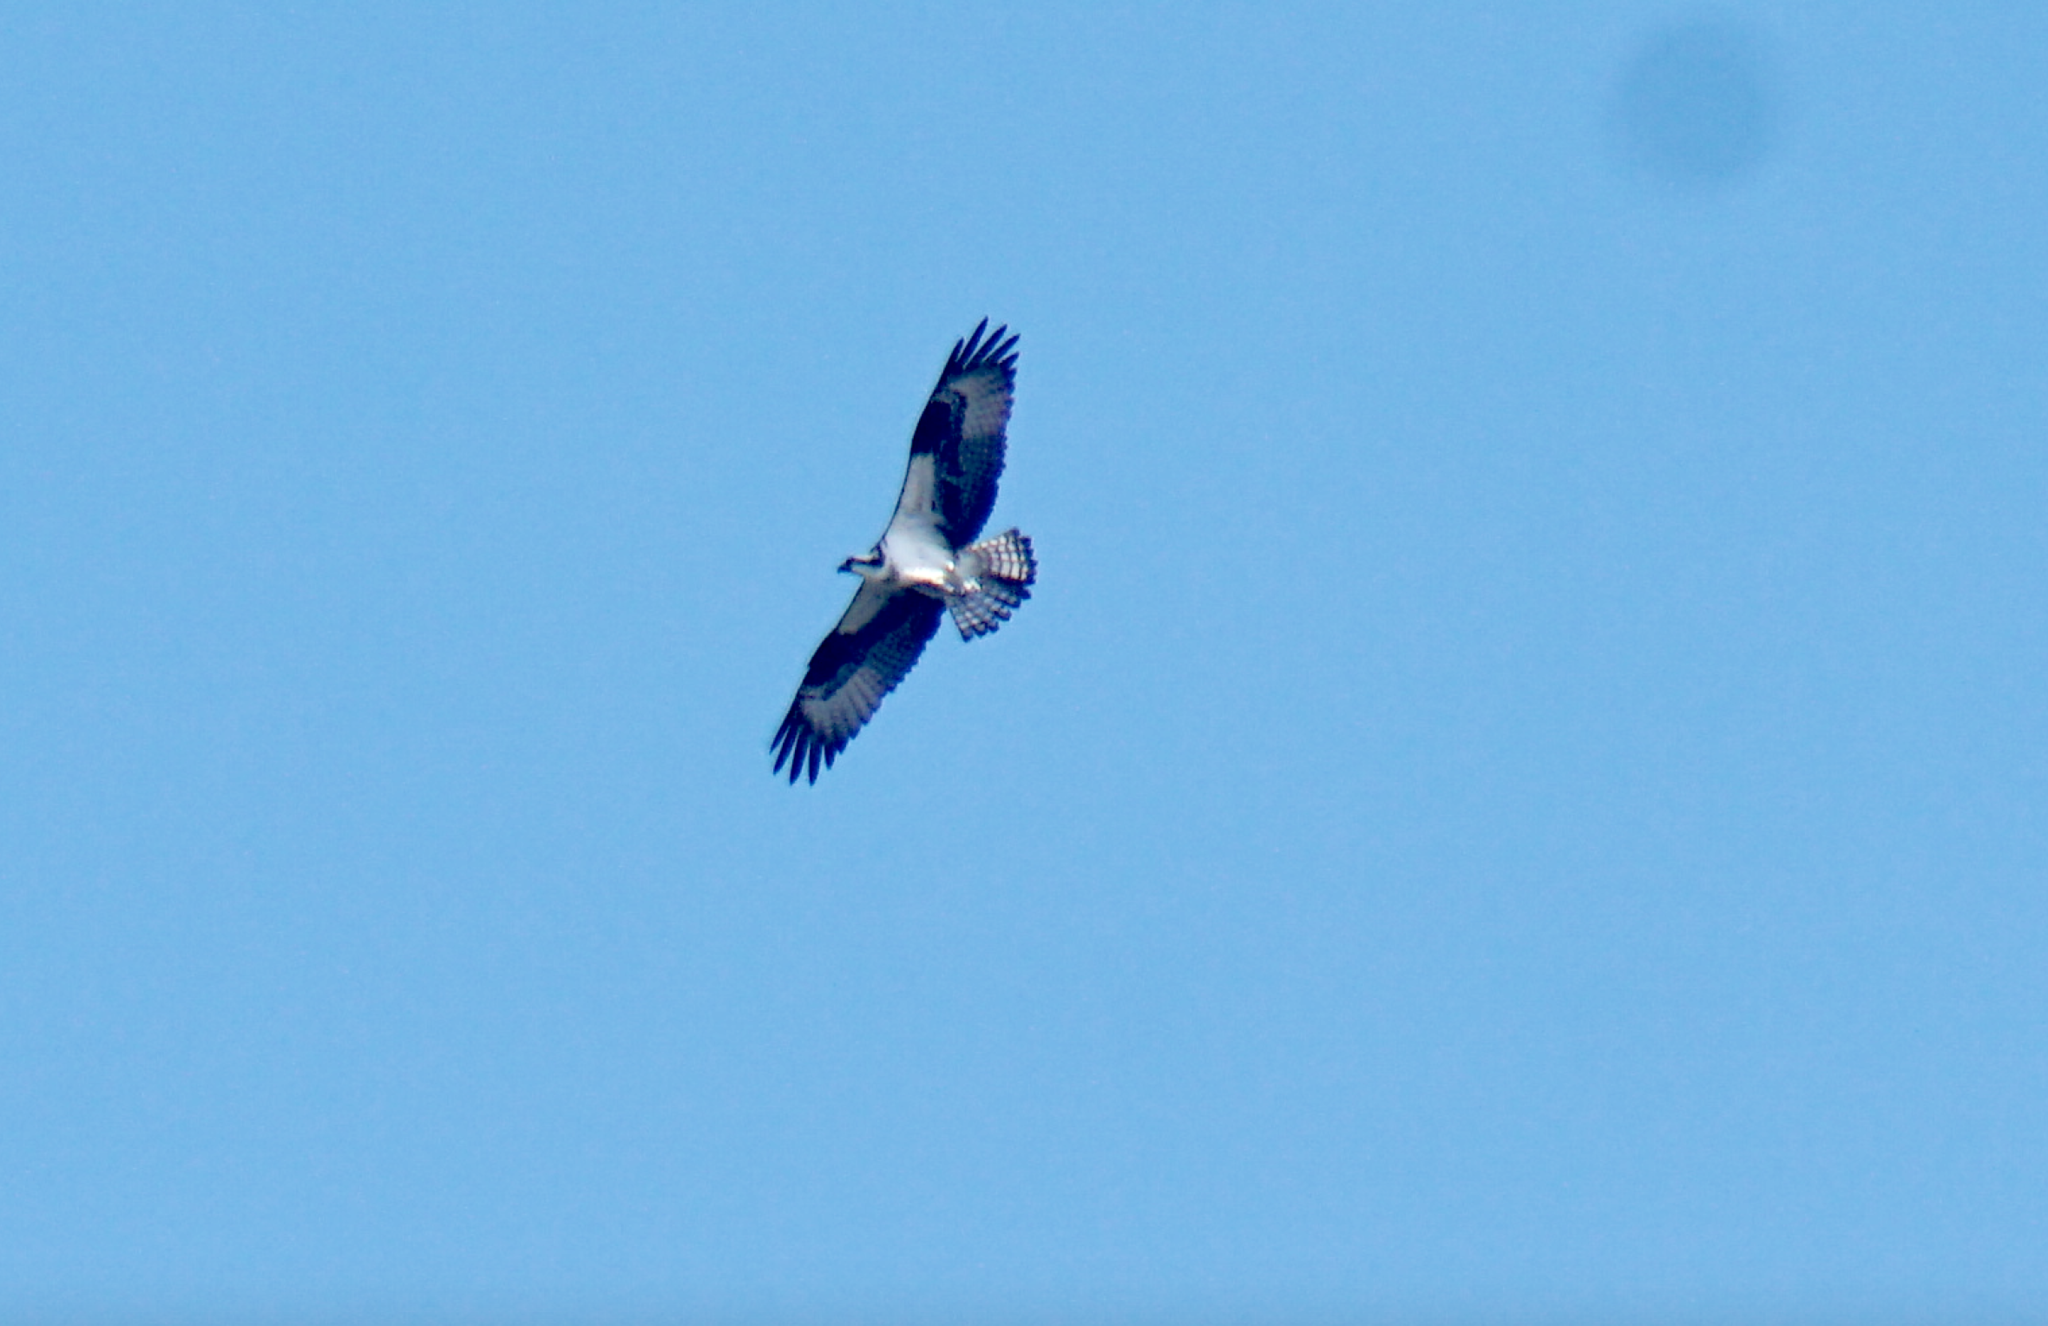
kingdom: Animalia
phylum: Chordata
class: Aves
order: Accipitriformes
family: Pandionidae
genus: Pandion
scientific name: Pandion haliaetus
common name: Osprey
